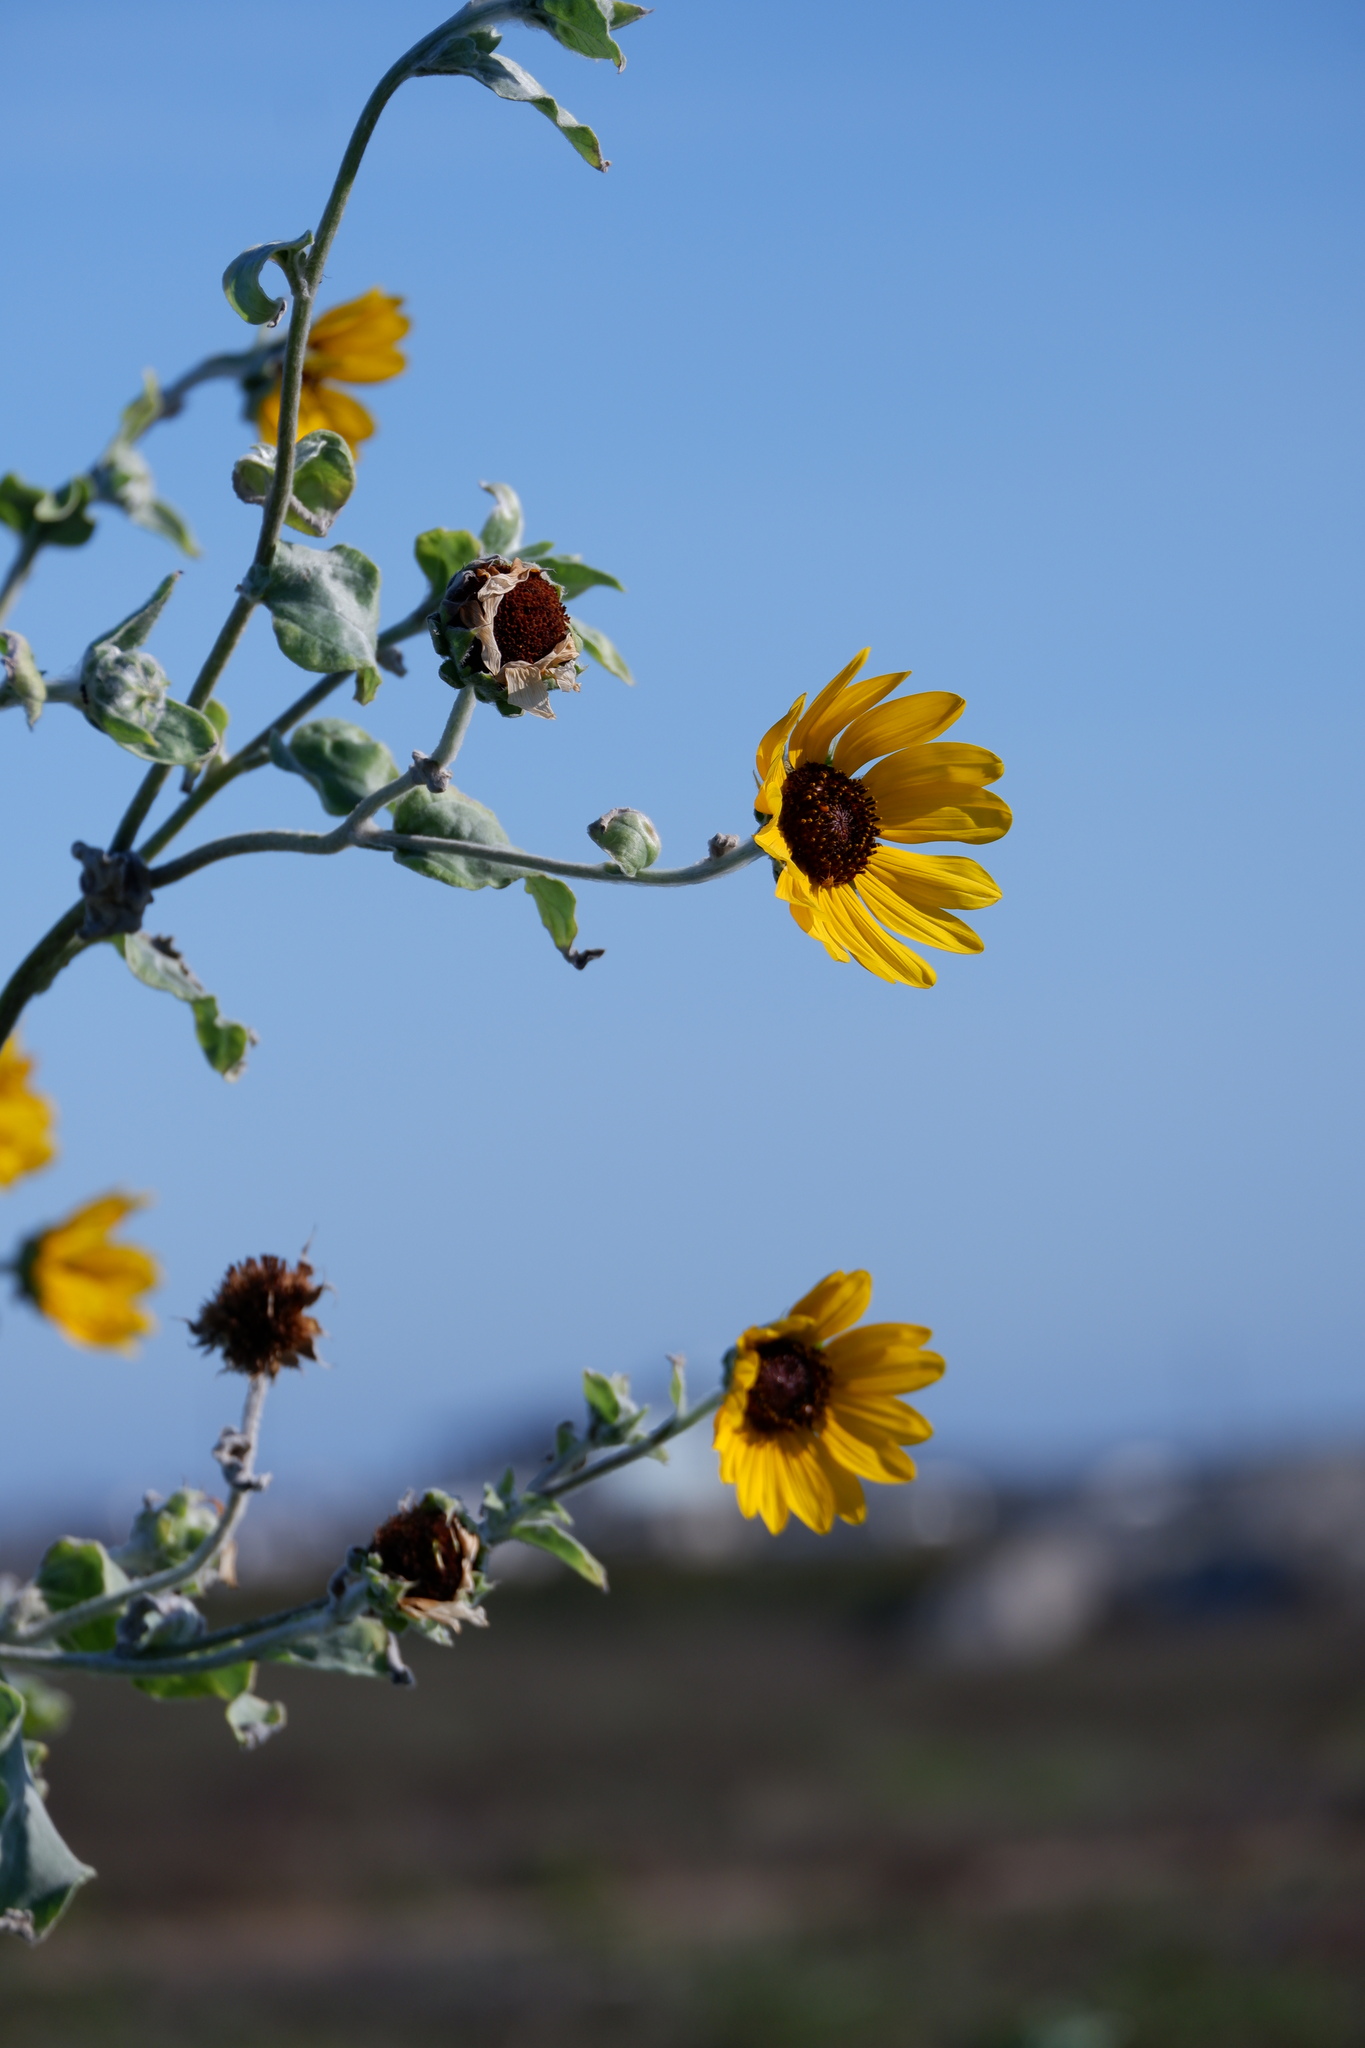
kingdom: Plantae
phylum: Tracheophyta
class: Magnoliopsida
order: Asterales
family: Asteraceae
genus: Helianthus
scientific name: Helianthus argophyllus
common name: Silverleaf sunflower
